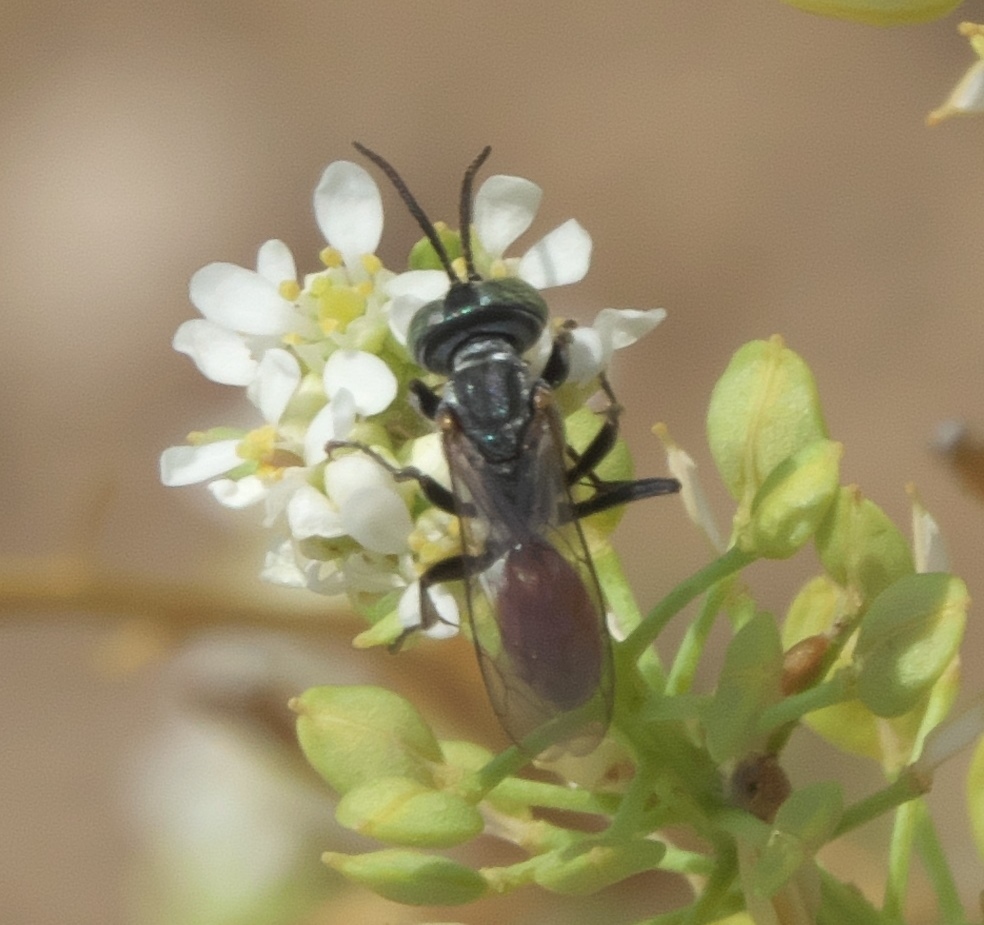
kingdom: Animalia
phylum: Arthropoda
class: Insecta
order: Hymenoptera
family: Crabronidae
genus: Tachysphex
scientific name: Tachysphex
